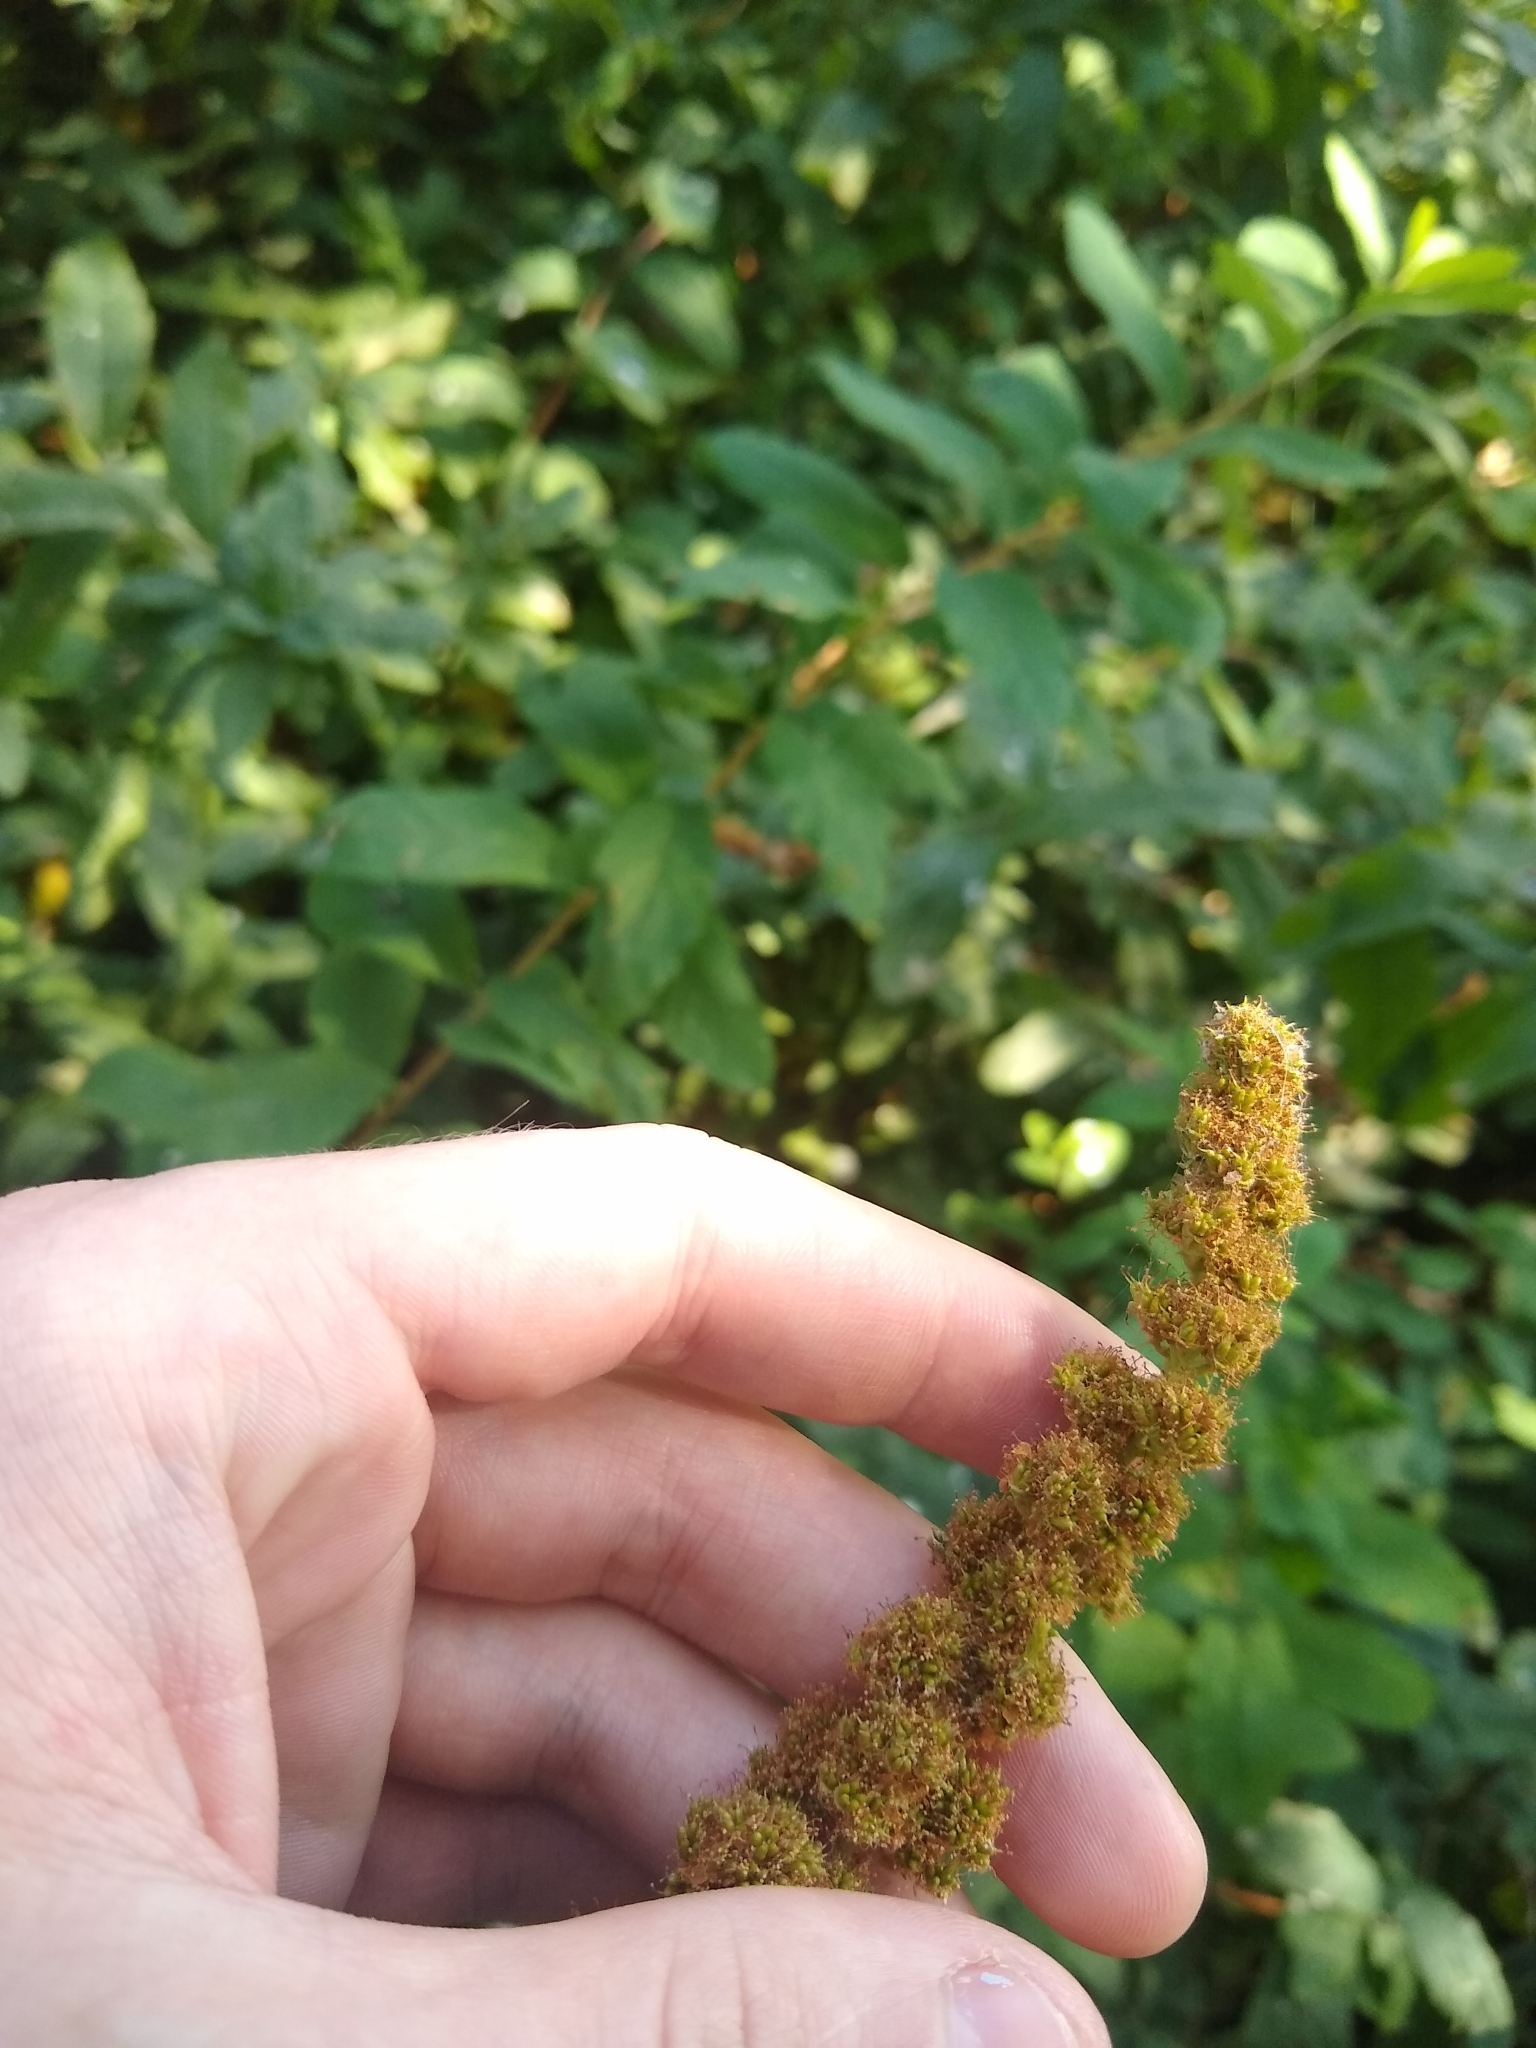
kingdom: Plantae
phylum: Tracheophyta
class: Magnoliopsida
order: Rosales
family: Rosaceae
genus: Spiraea
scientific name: Spiraea douglasii
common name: Steeplebush
